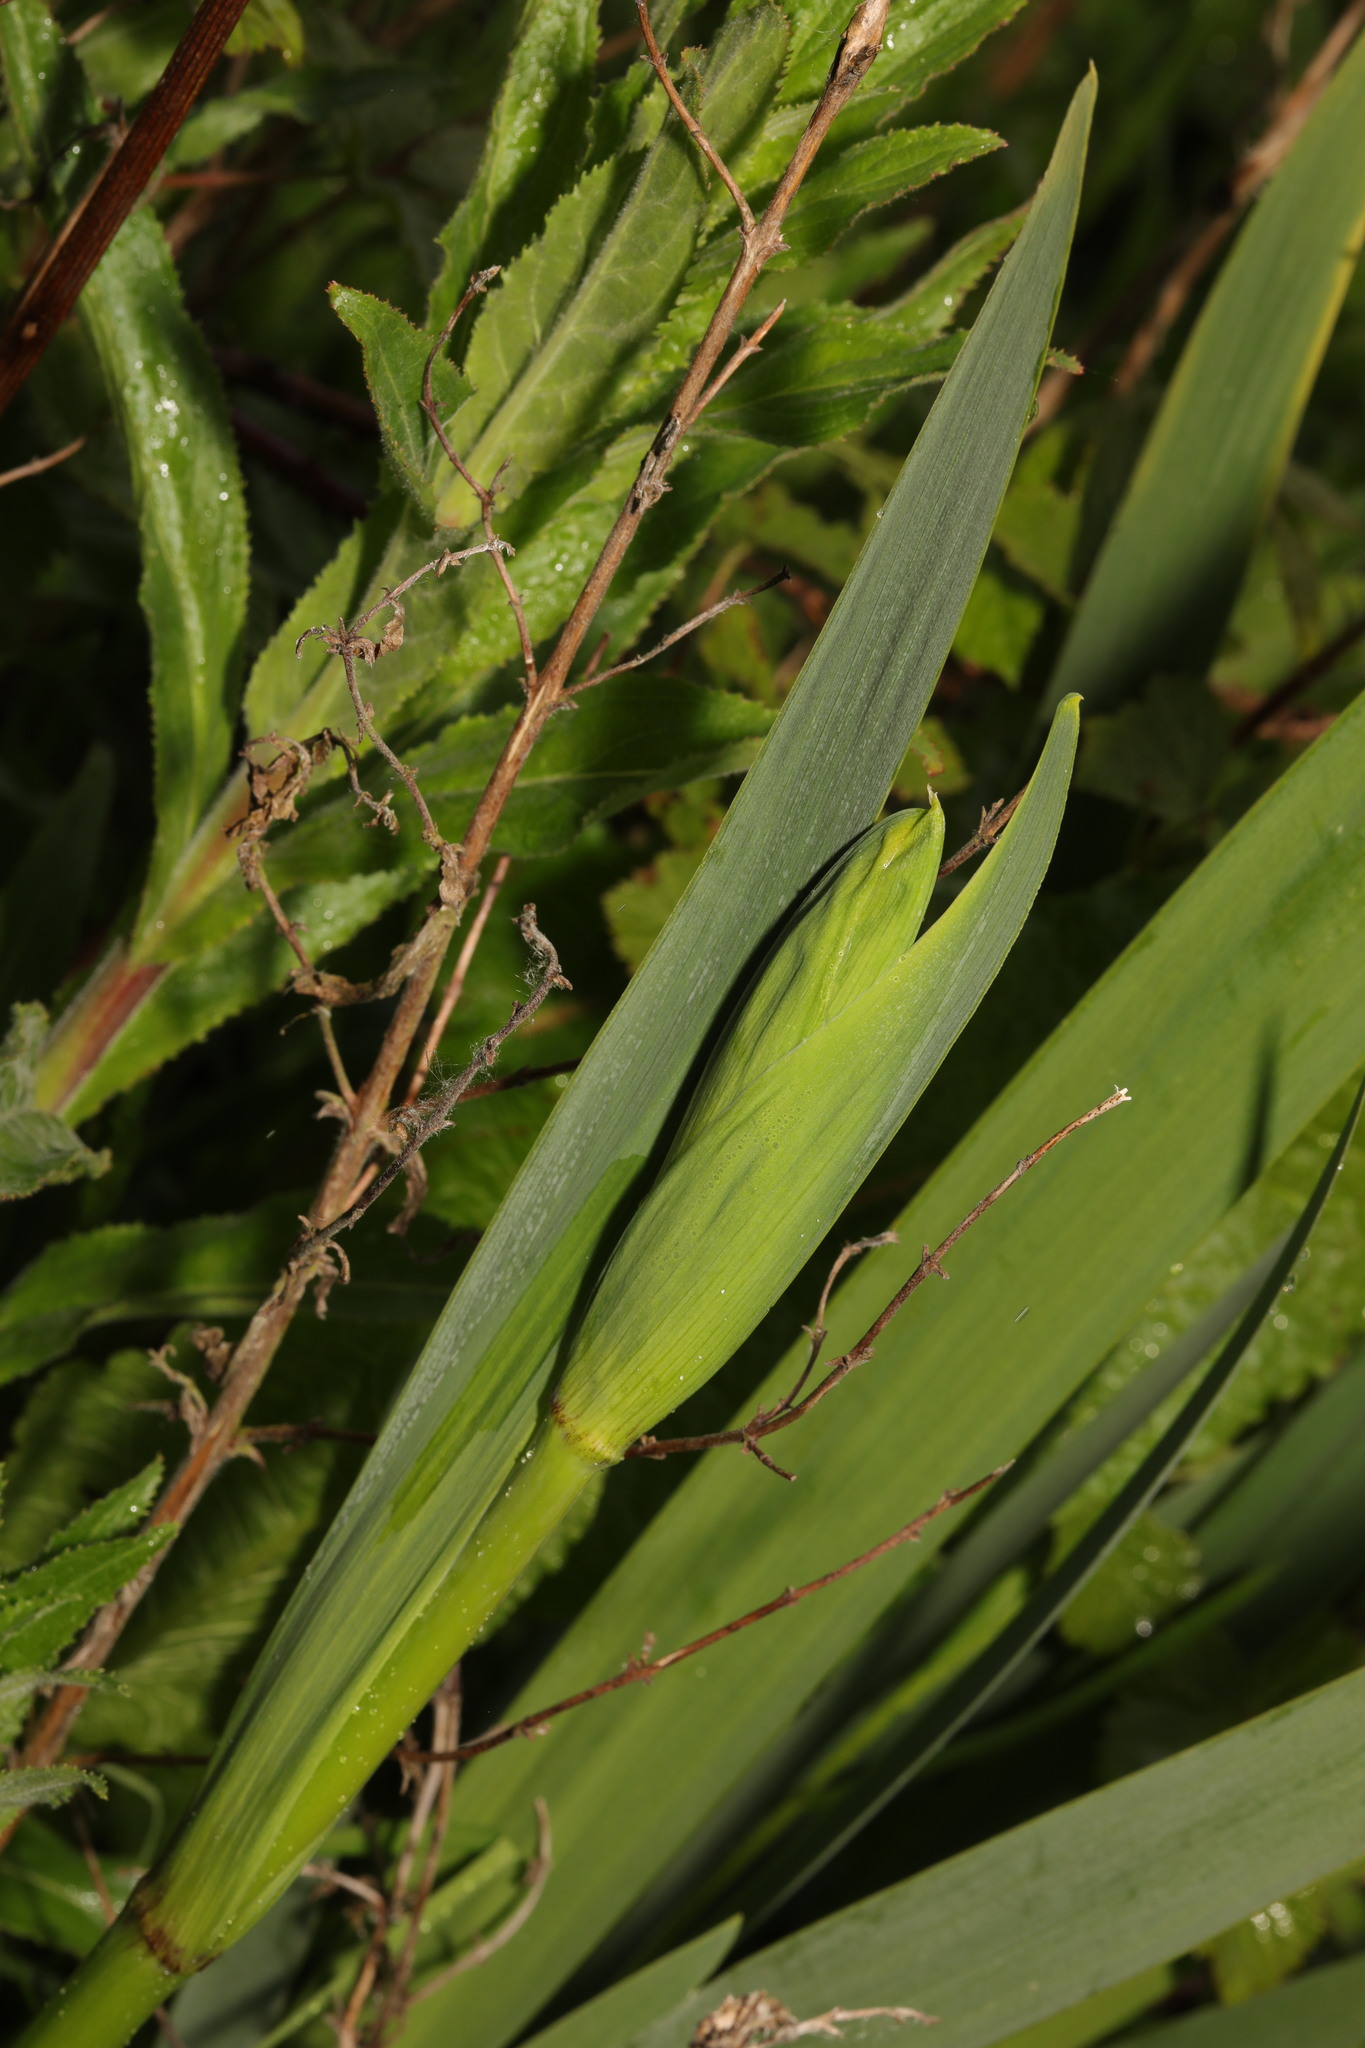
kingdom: Plantae
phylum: Tracheophyta
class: Liliopsida
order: Asparagales
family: Iridaceae
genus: Iris
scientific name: Iris pseudacorus
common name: Yellow flag
